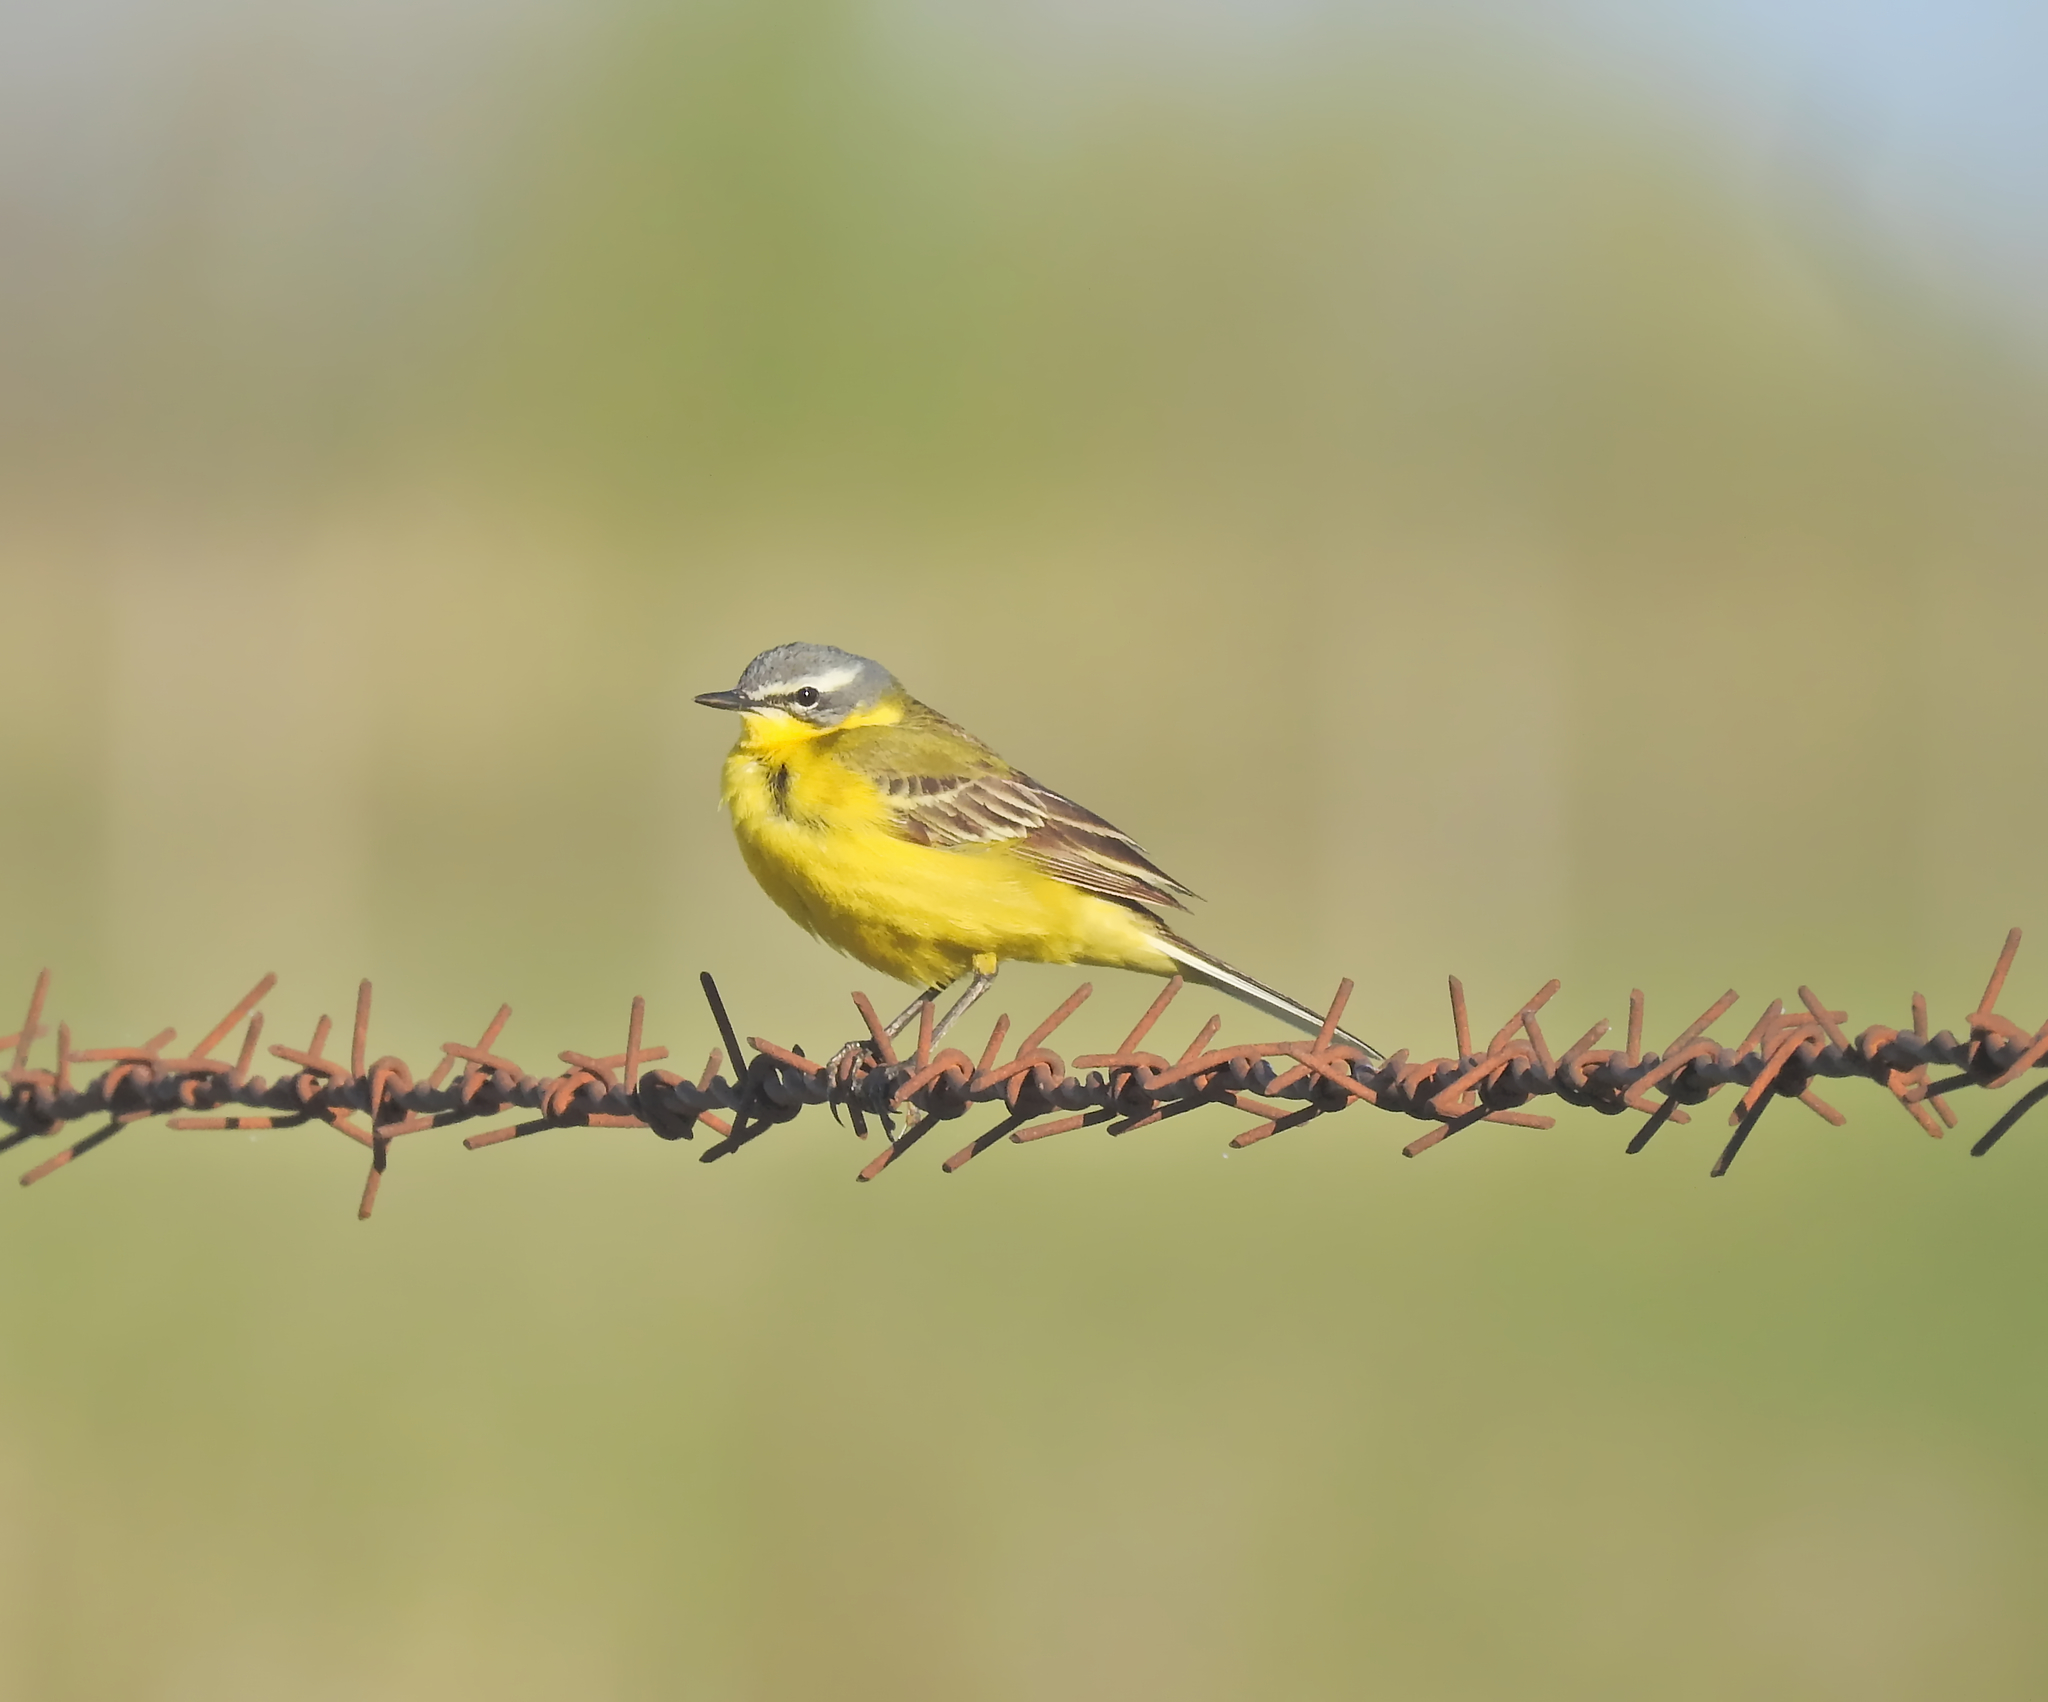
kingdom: Animalia
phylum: Chordata
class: Aves
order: Passeriformes
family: Motacillidae
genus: Motacilla
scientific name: Motacilla flava
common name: Western yellow wagtail
